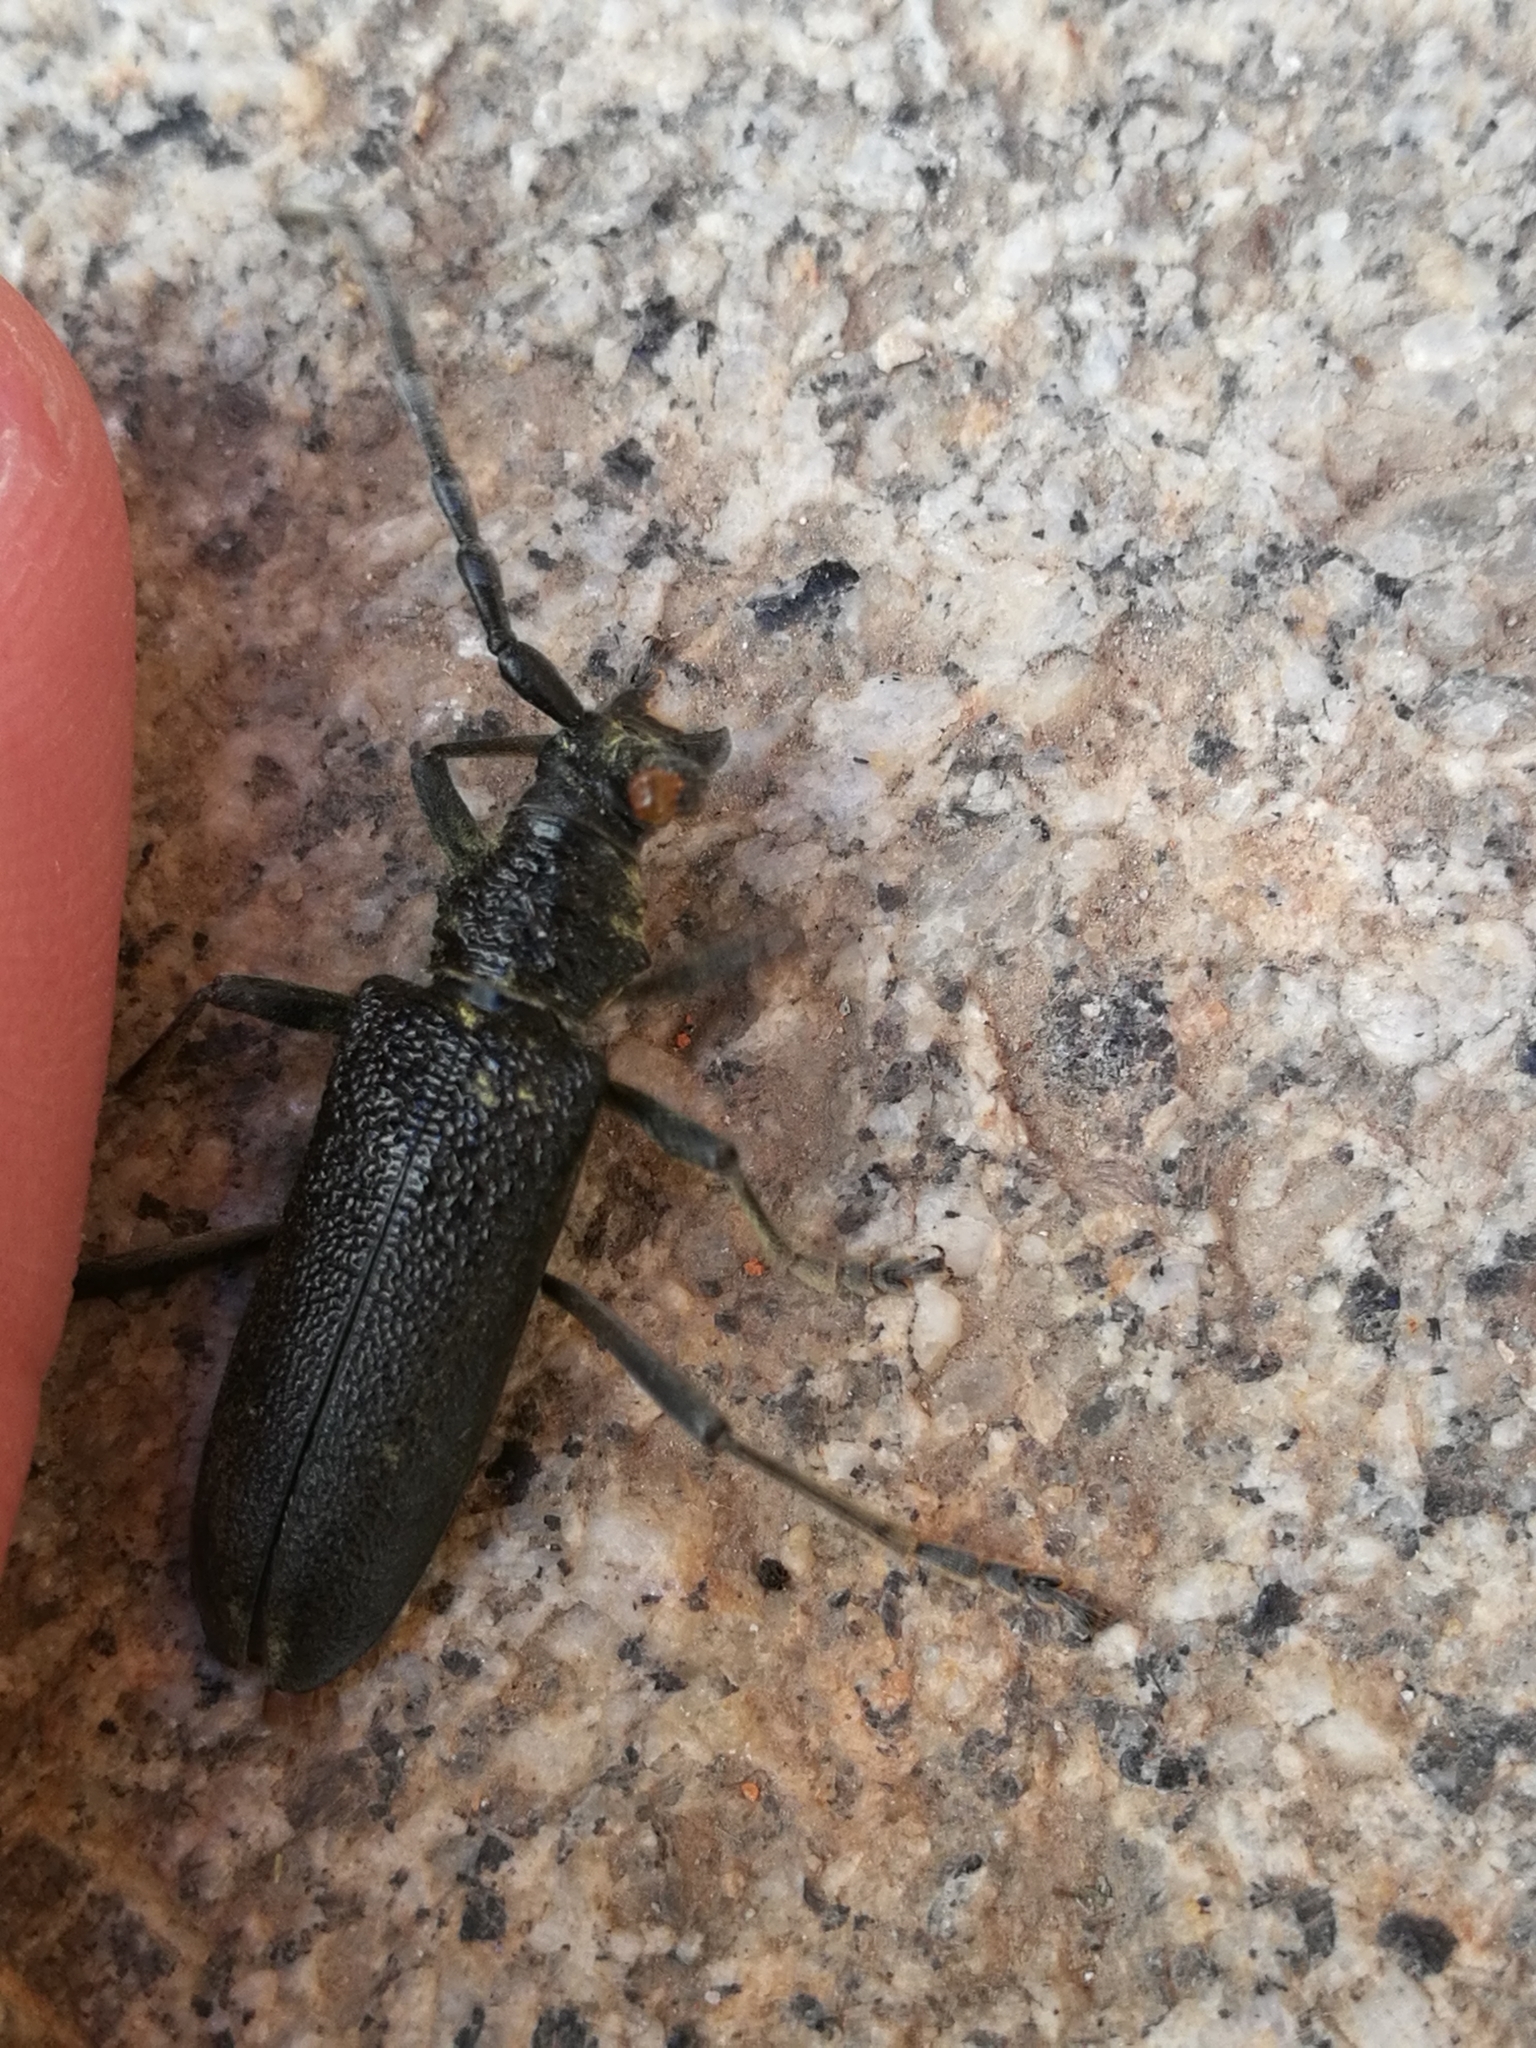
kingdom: Animalia
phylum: Arthropoda
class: Insecta
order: Coleoptera
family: Cerambycidae
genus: Cerambyx
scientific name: Cerambyx scopolii
